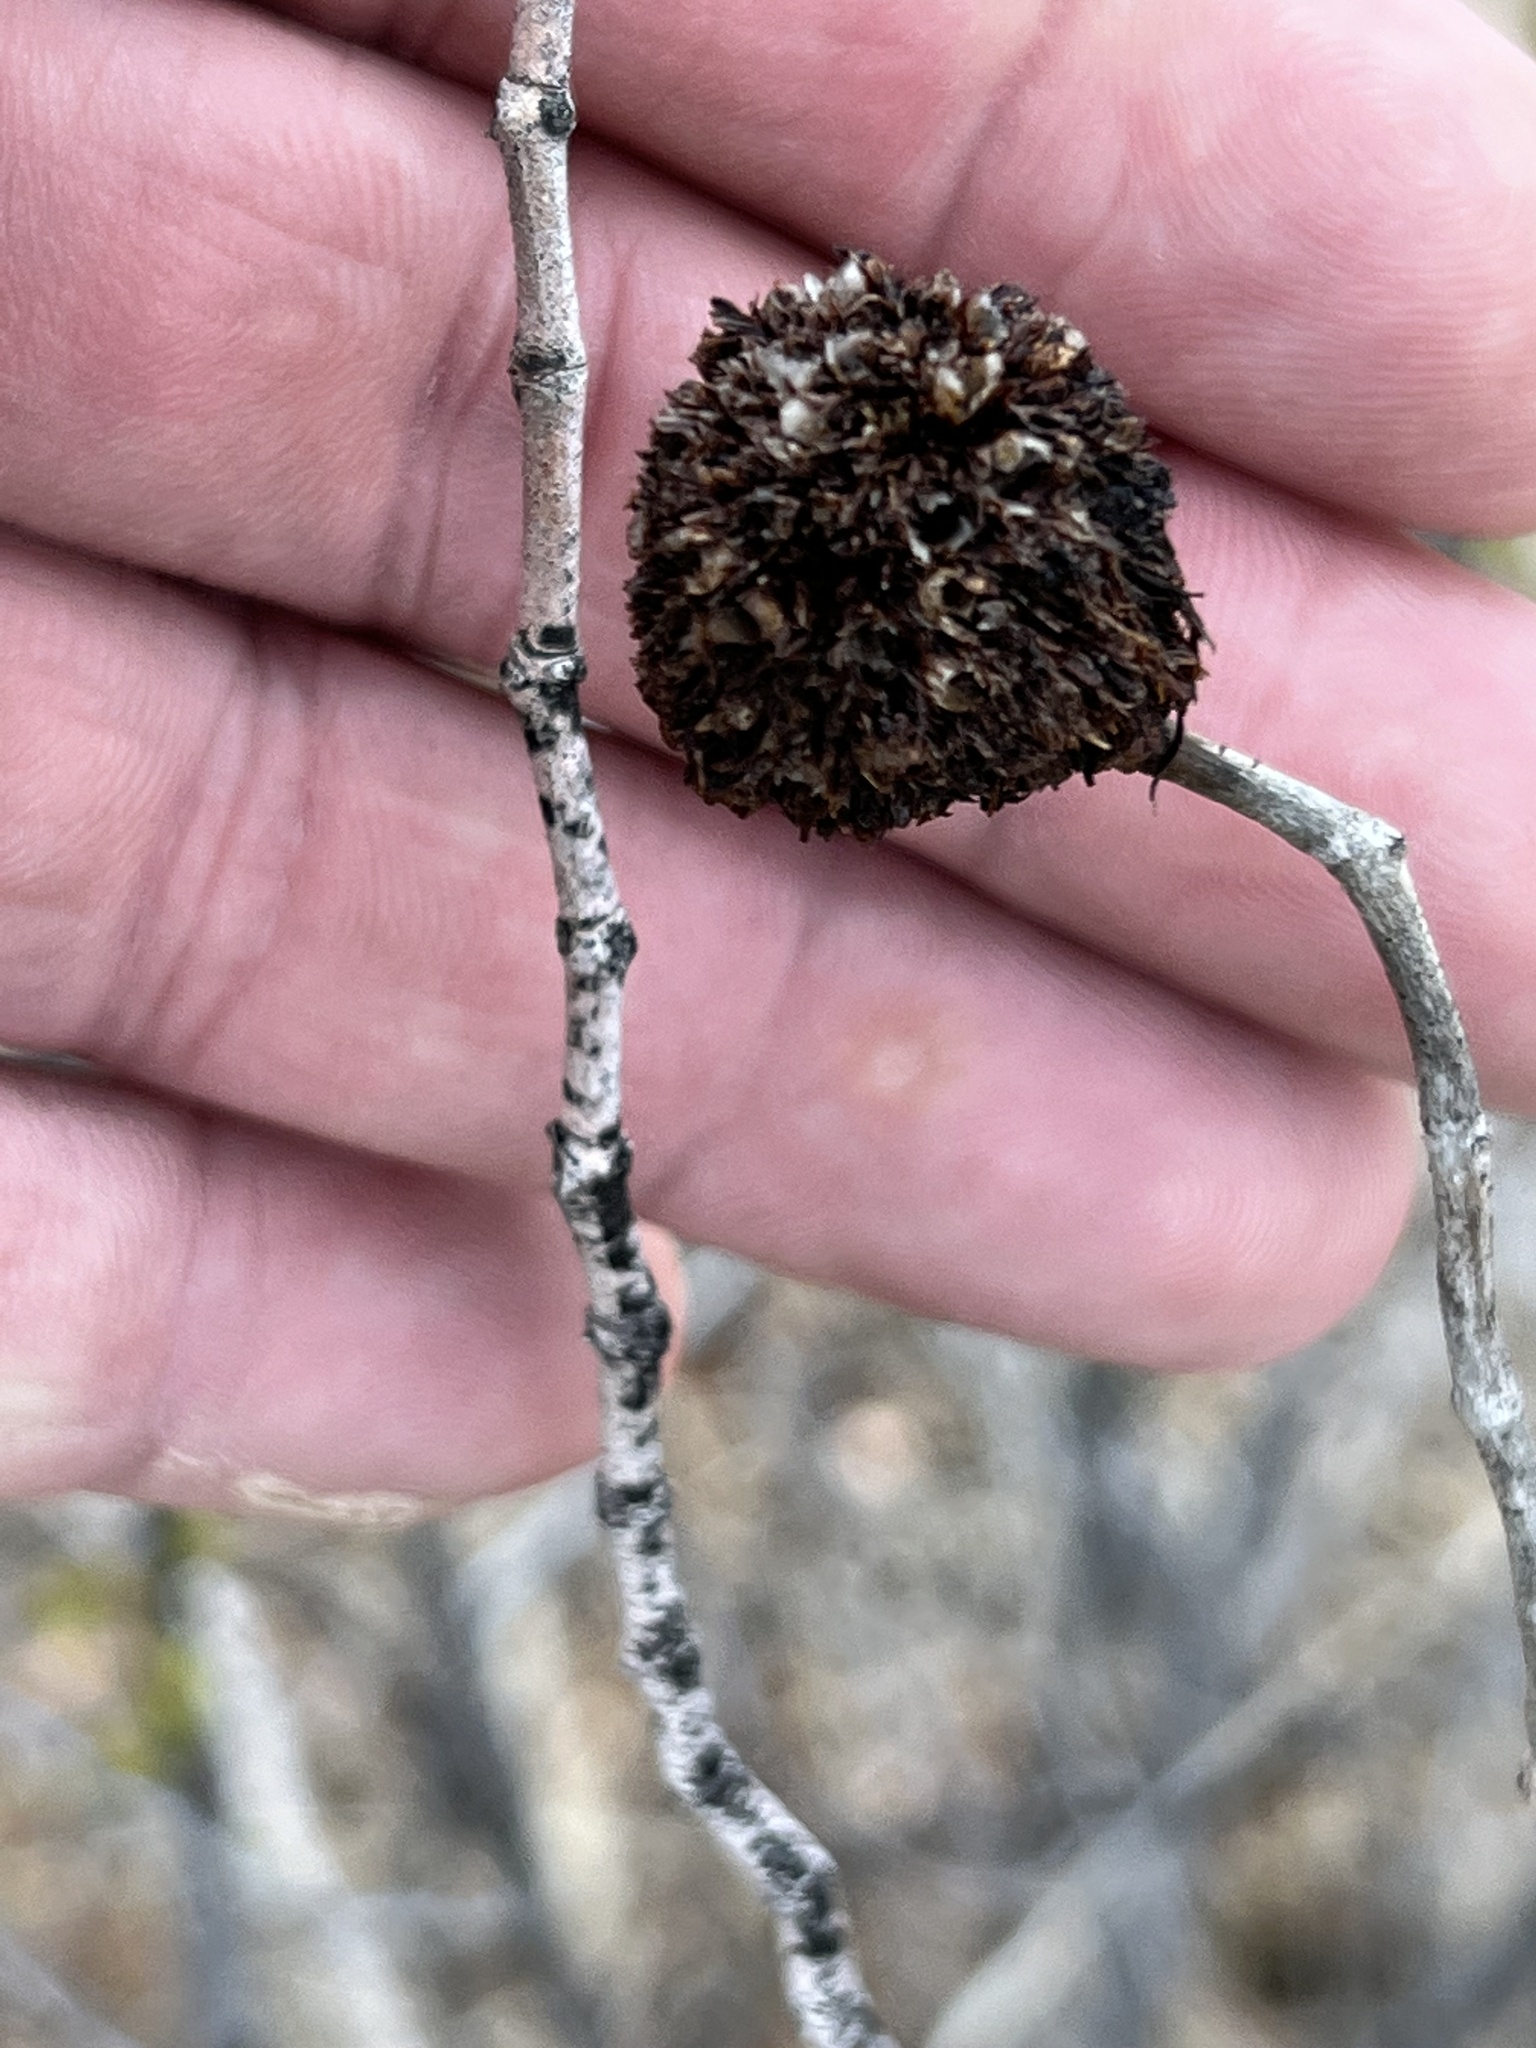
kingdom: Animalia
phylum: Arthropoda
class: Insecta
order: Diptera
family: Cecidomyiidae
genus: Asphondylia
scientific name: Asphondylia auripila
